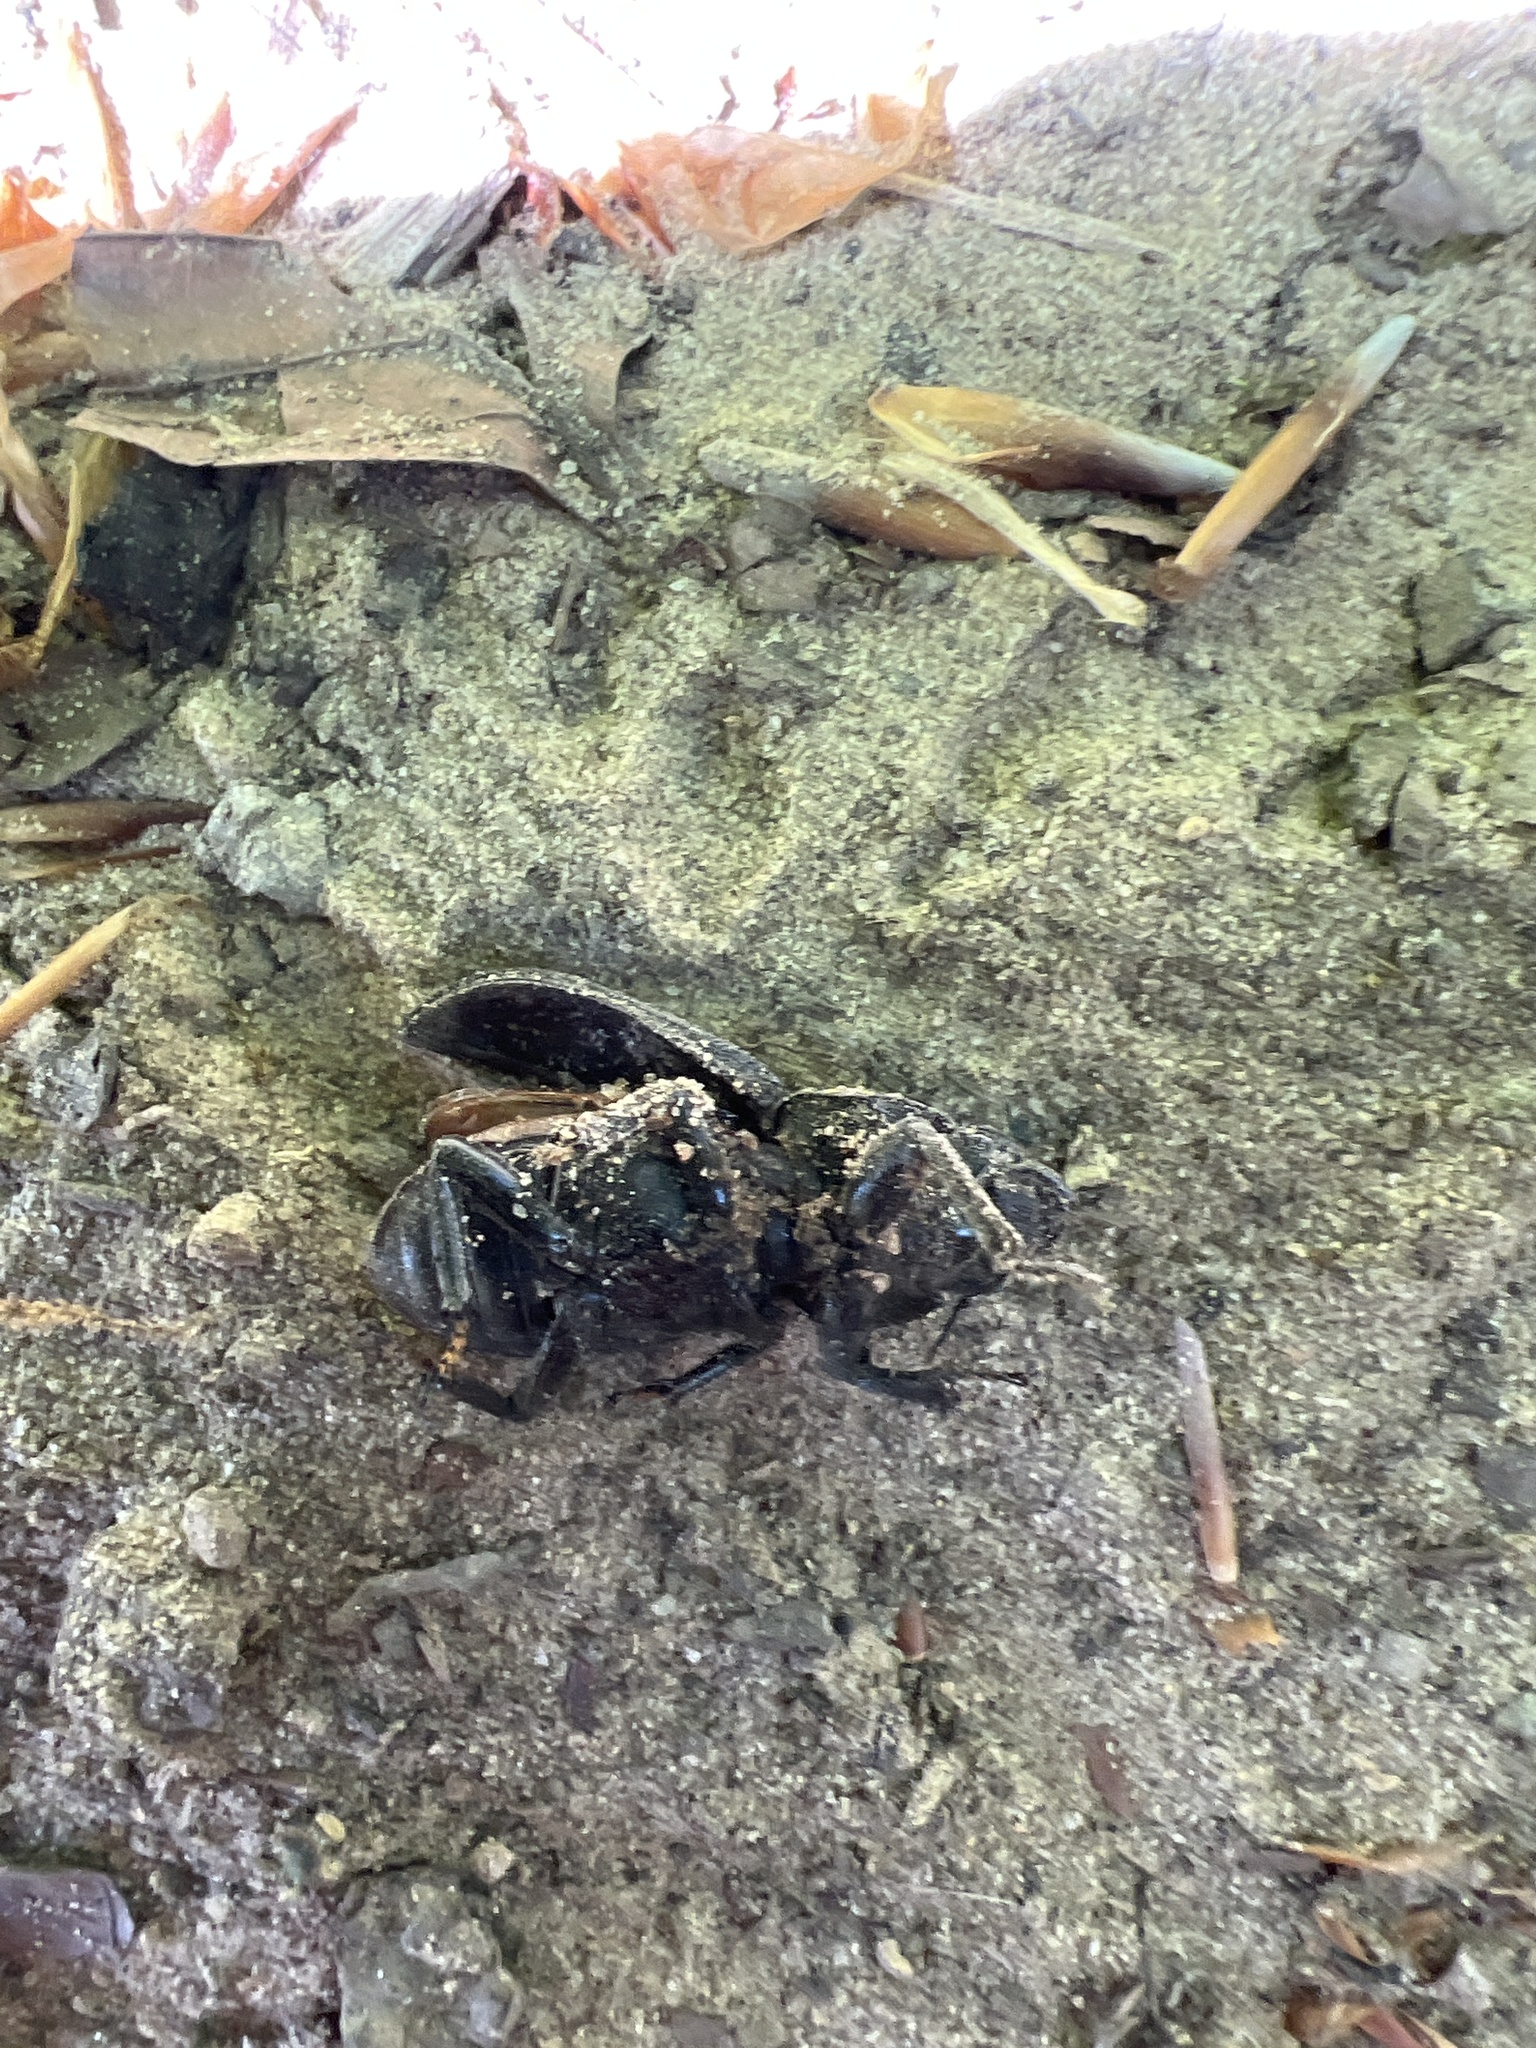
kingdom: Animalia
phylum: Arthropoda
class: Insecta
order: Coleoptera
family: Lucanidae
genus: Dorcus
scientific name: Dorcus parallelipipedus
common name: Lesser stag beetle
